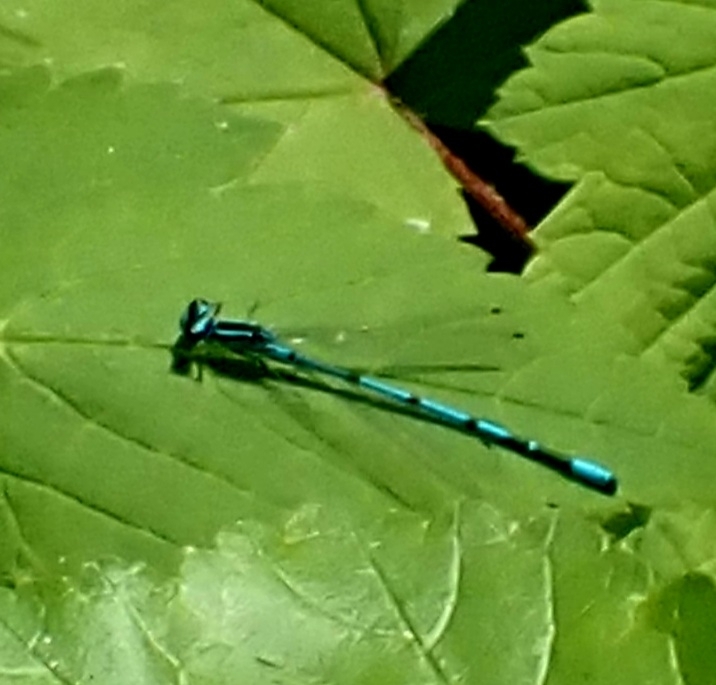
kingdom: Animalia
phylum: Arthropoda
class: Insecta
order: Odonata
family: Coenagrionidae
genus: Coenagrion
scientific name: Coenagrion puella
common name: Azure damselfly
